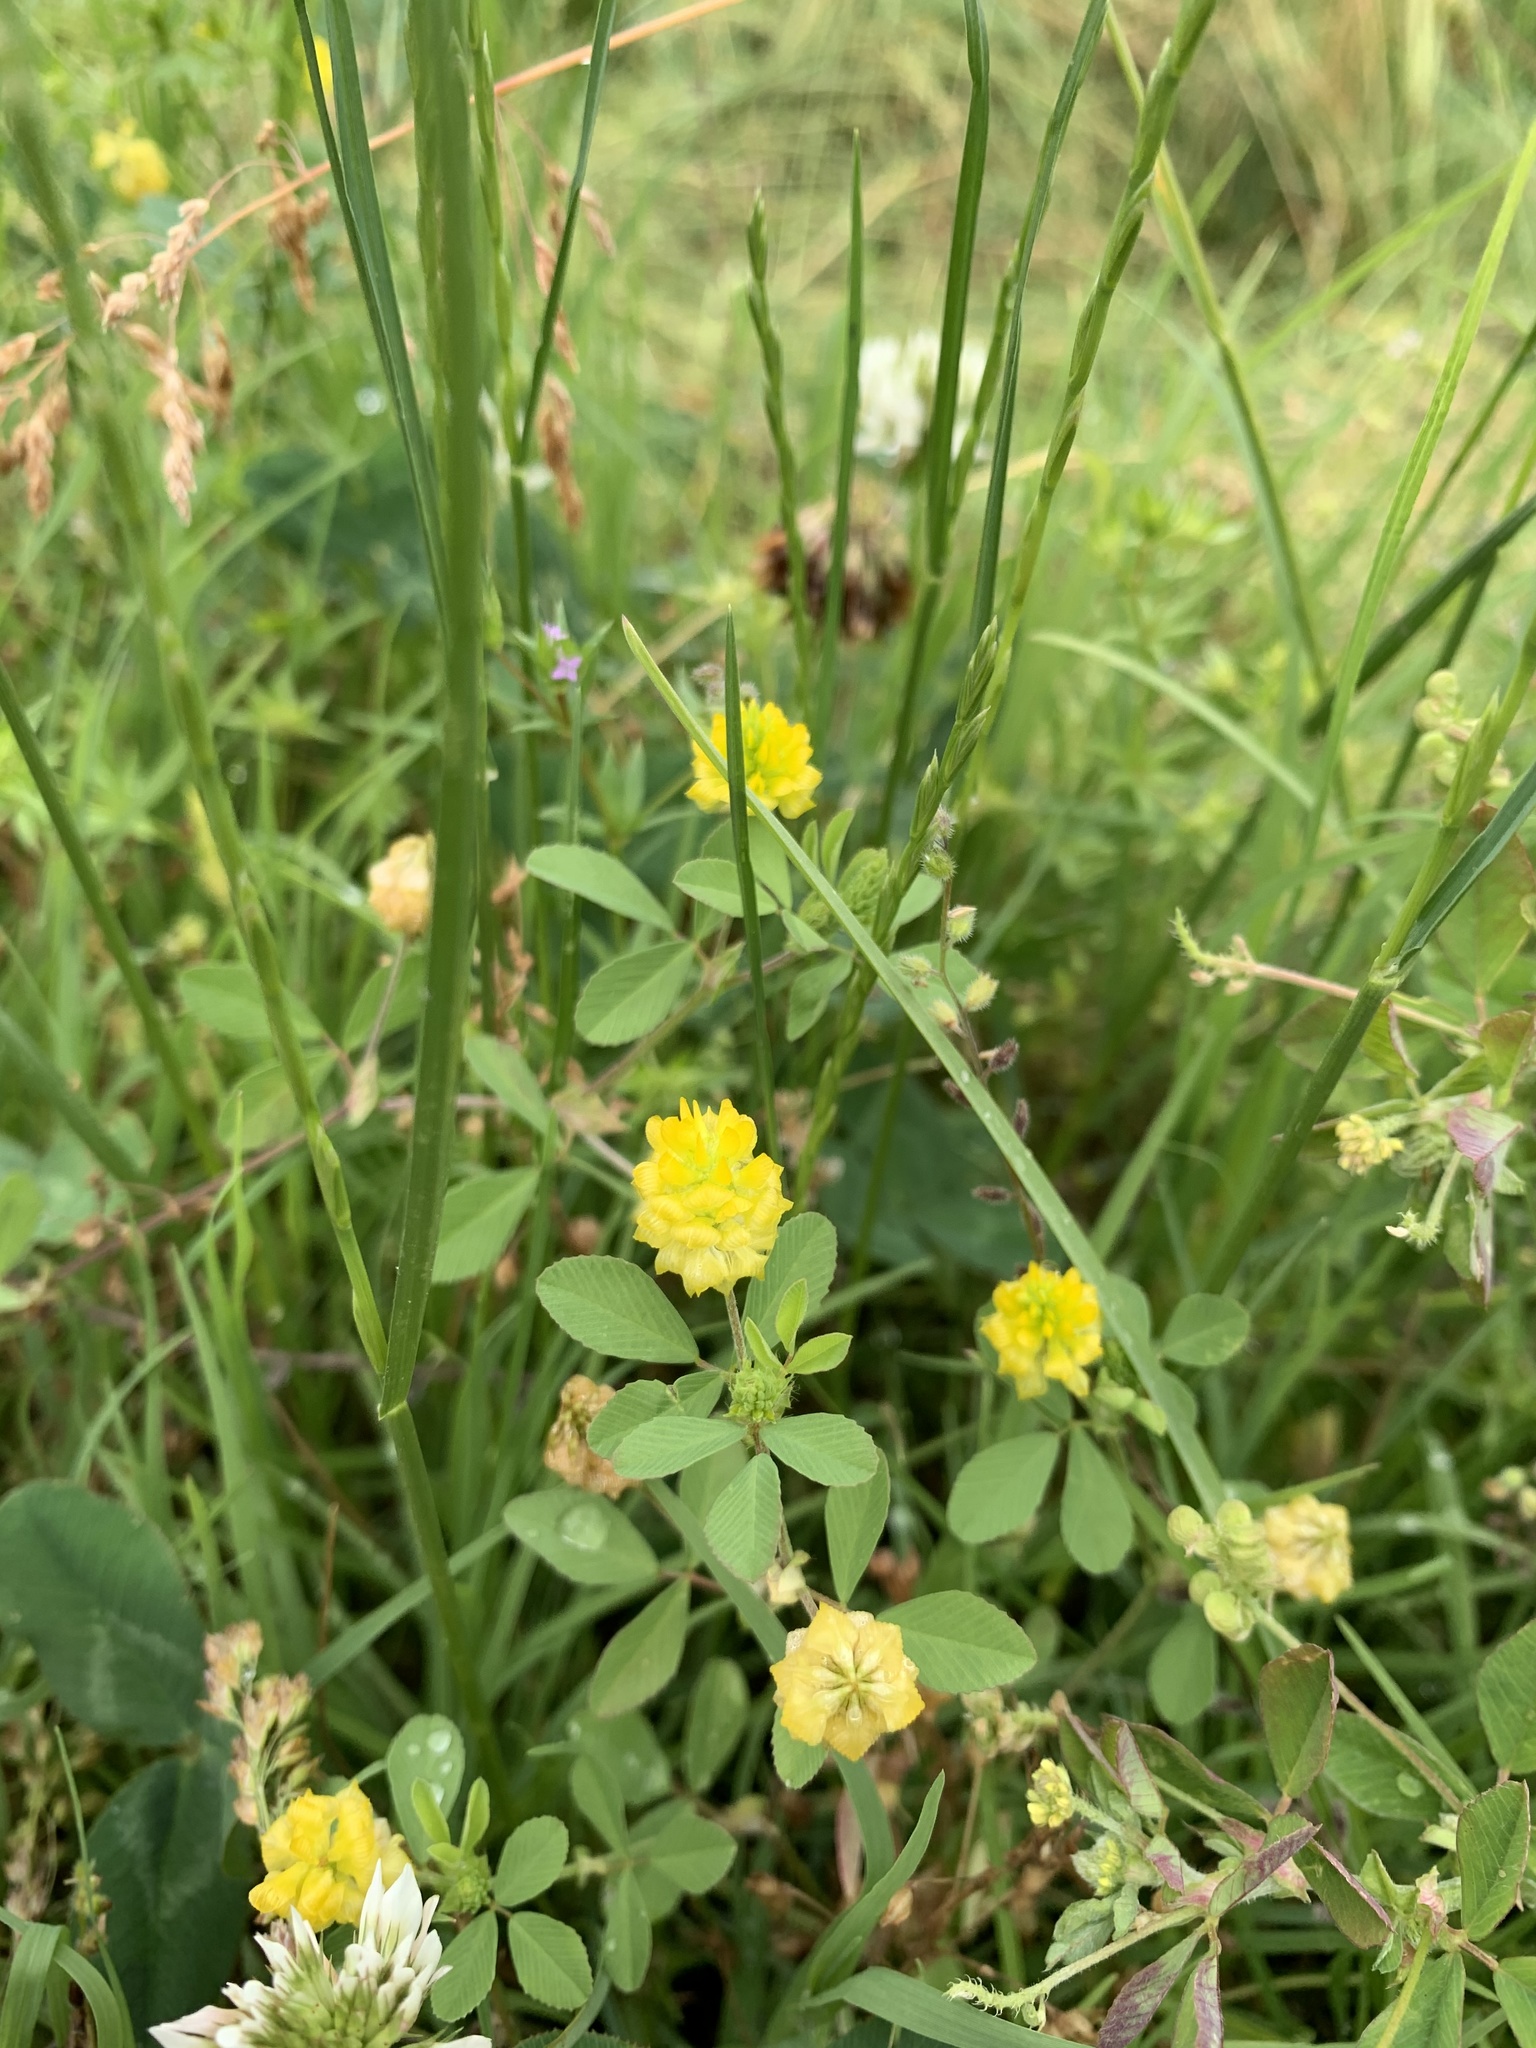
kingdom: Plantae
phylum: Tracheophyta
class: Magnoliopsida
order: Fabales
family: Fabaceae
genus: Trifolium
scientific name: Trifolium campestre
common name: Field clover
